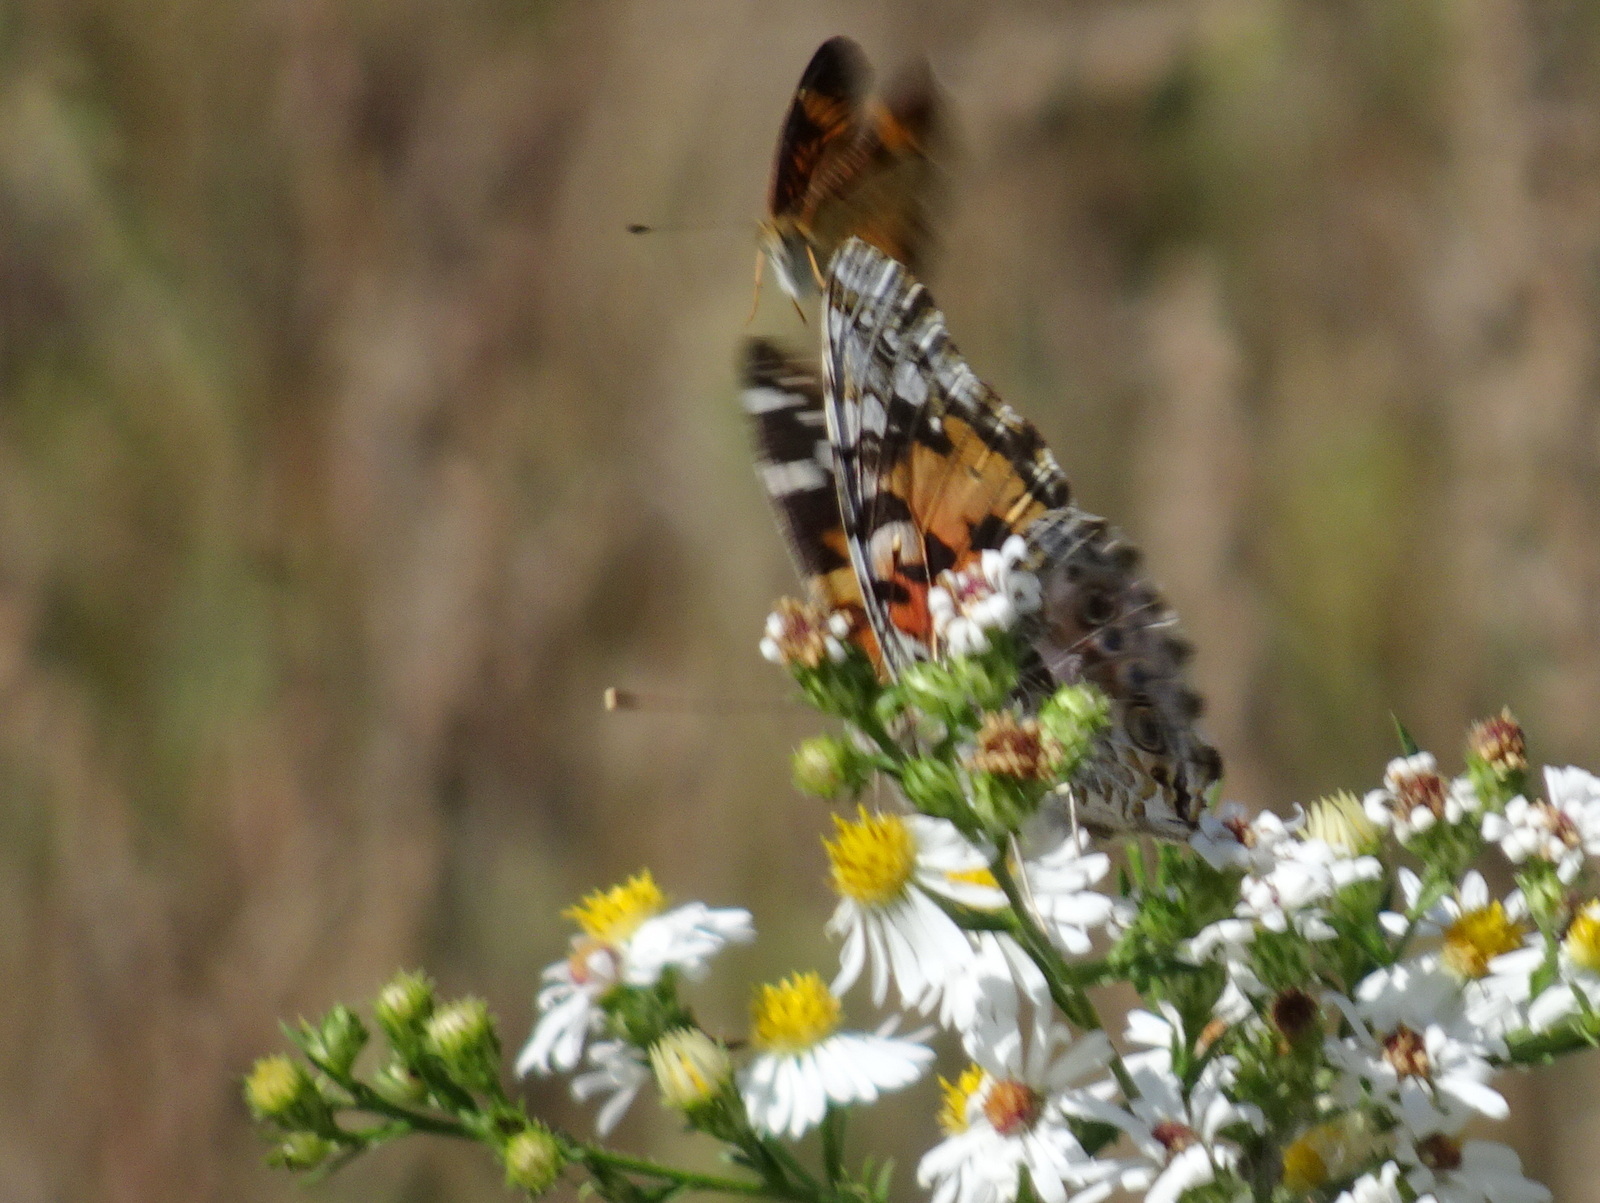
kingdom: Animalia
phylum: Arthropoda
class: Insecta
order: Lepidoptera
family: Nymphalidae
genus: Vanessa
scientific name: Vanessa cardui
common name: Painted lady
